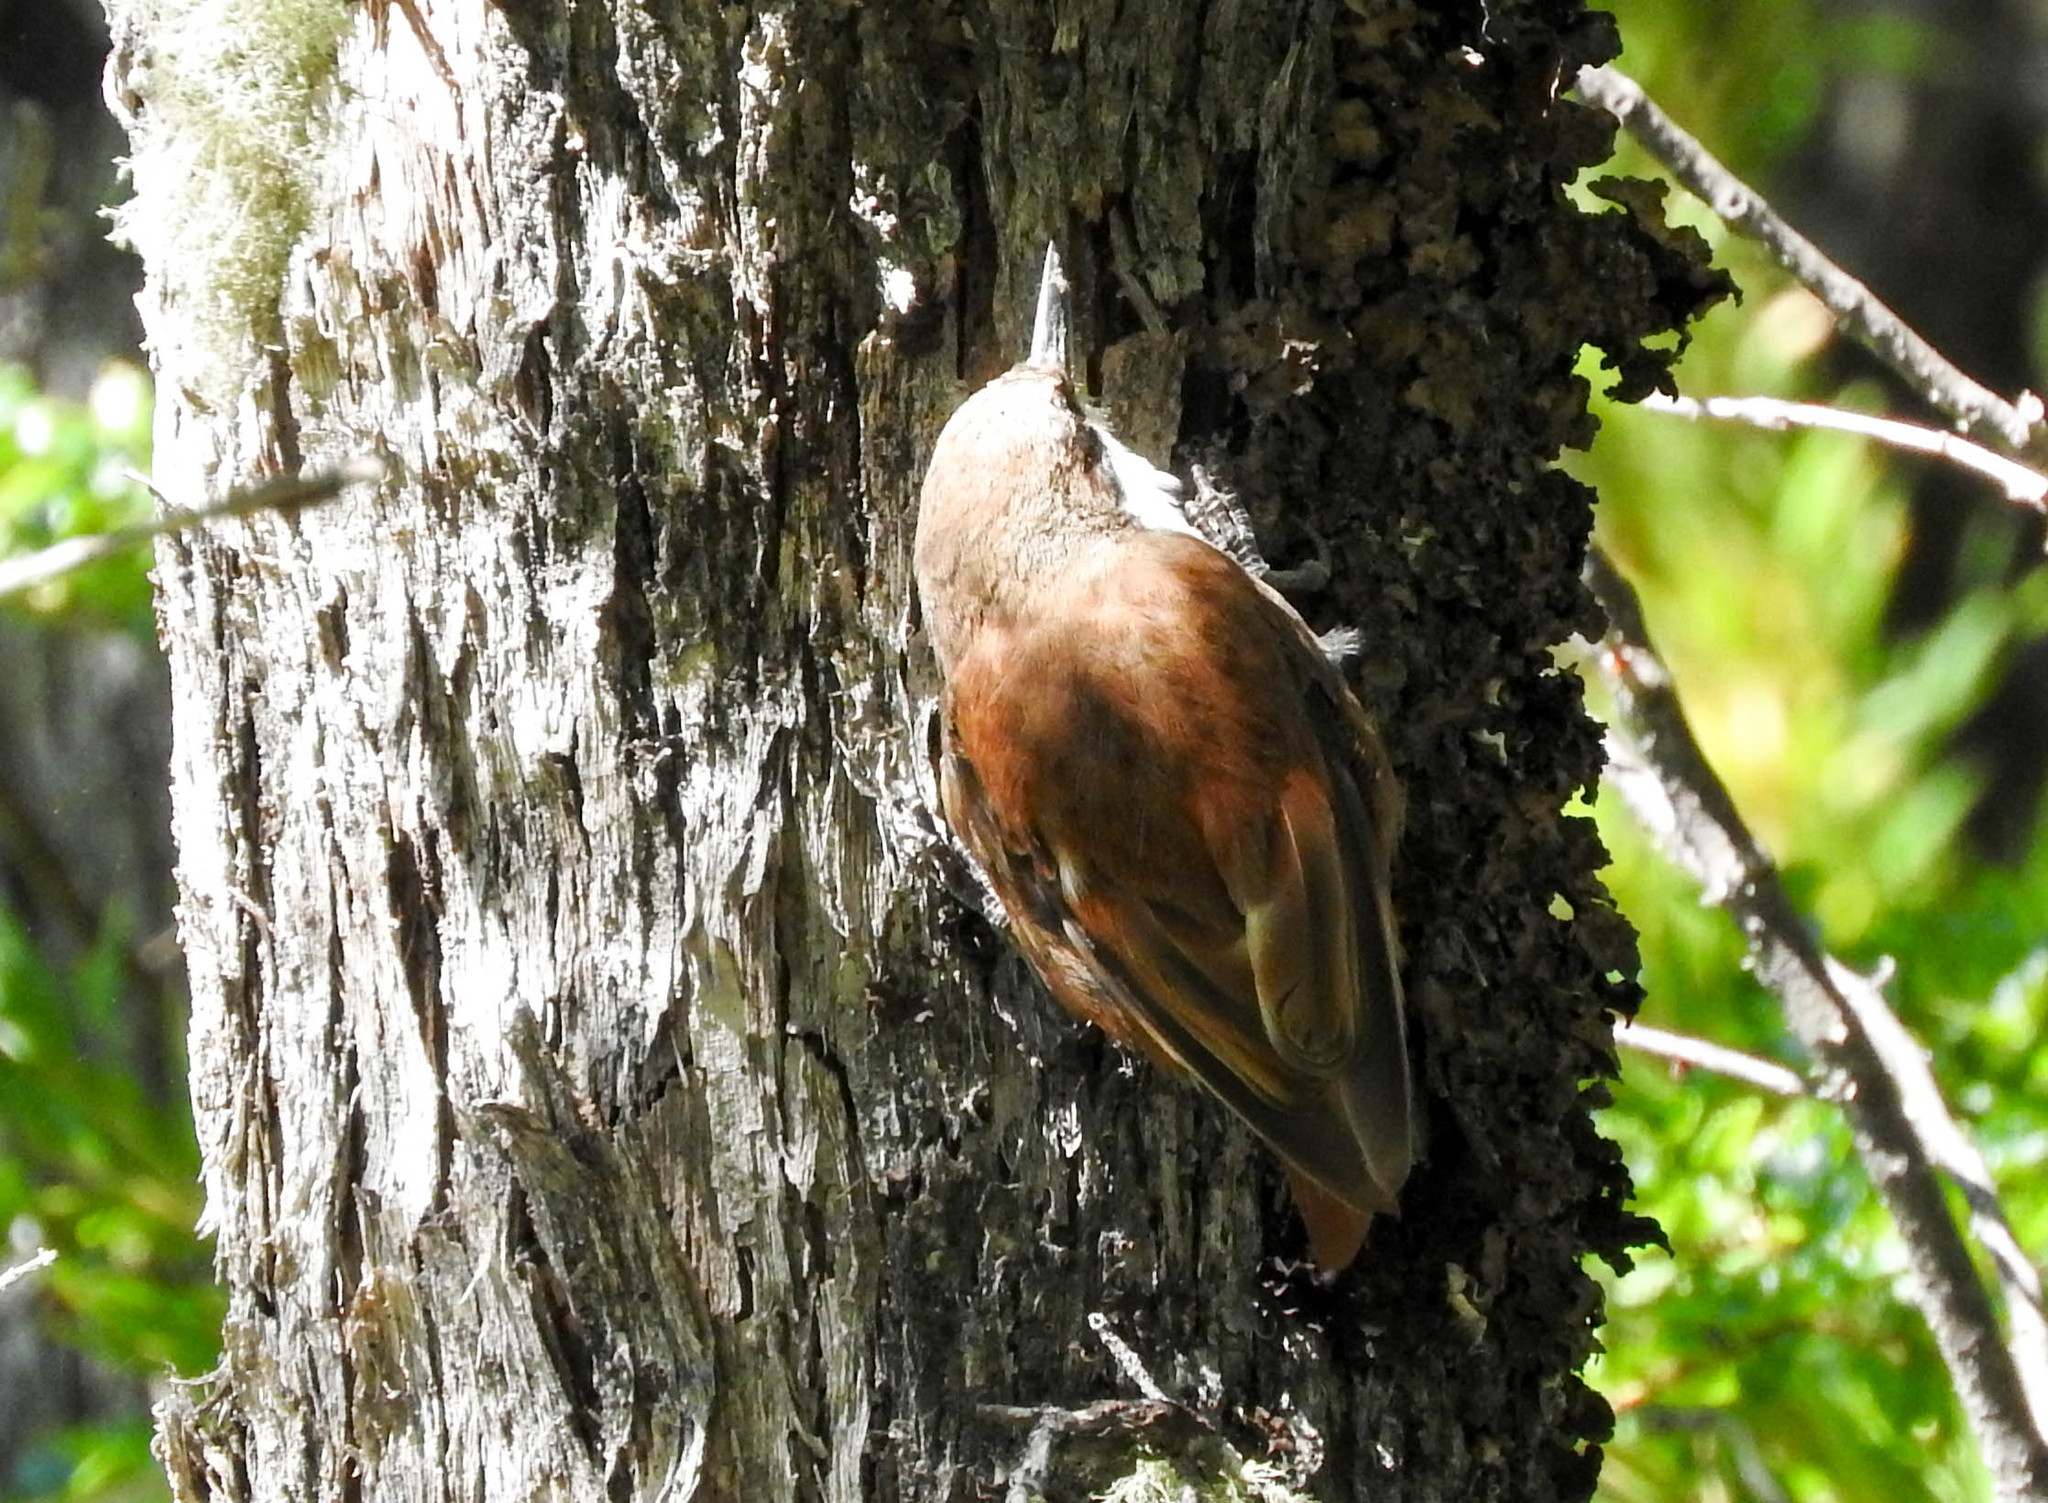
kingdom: Animalia
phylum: Chordata
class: Aves
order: Passeriformes
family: Furnariidae
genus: Pygarrhichas
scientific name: Pygarrhichas albogularis
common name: White-throated treerunner
